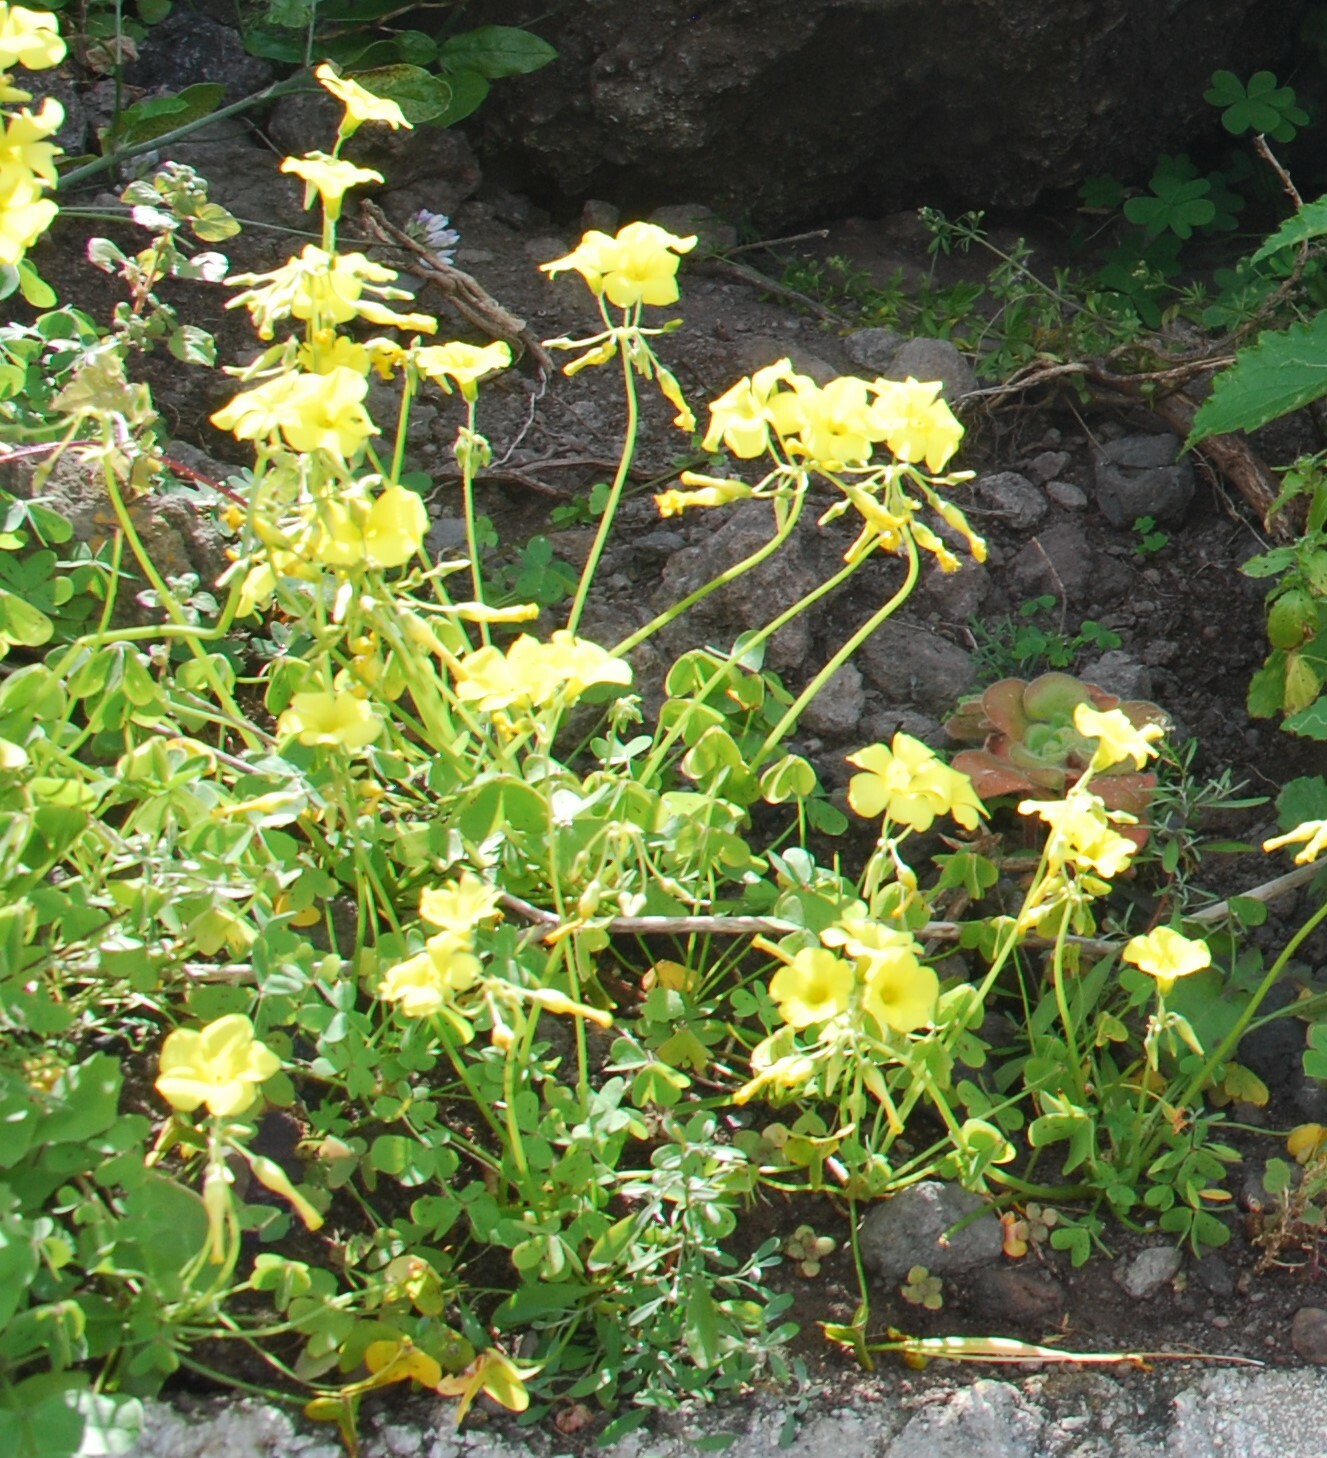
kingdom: Plantae
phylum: Tracheophyta
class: Magnoliopsida
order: Oxalidales
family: Oxalidaceae
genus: Oxalis
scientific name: Oxalis pes-caprae
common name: Bermuda-buttercup
